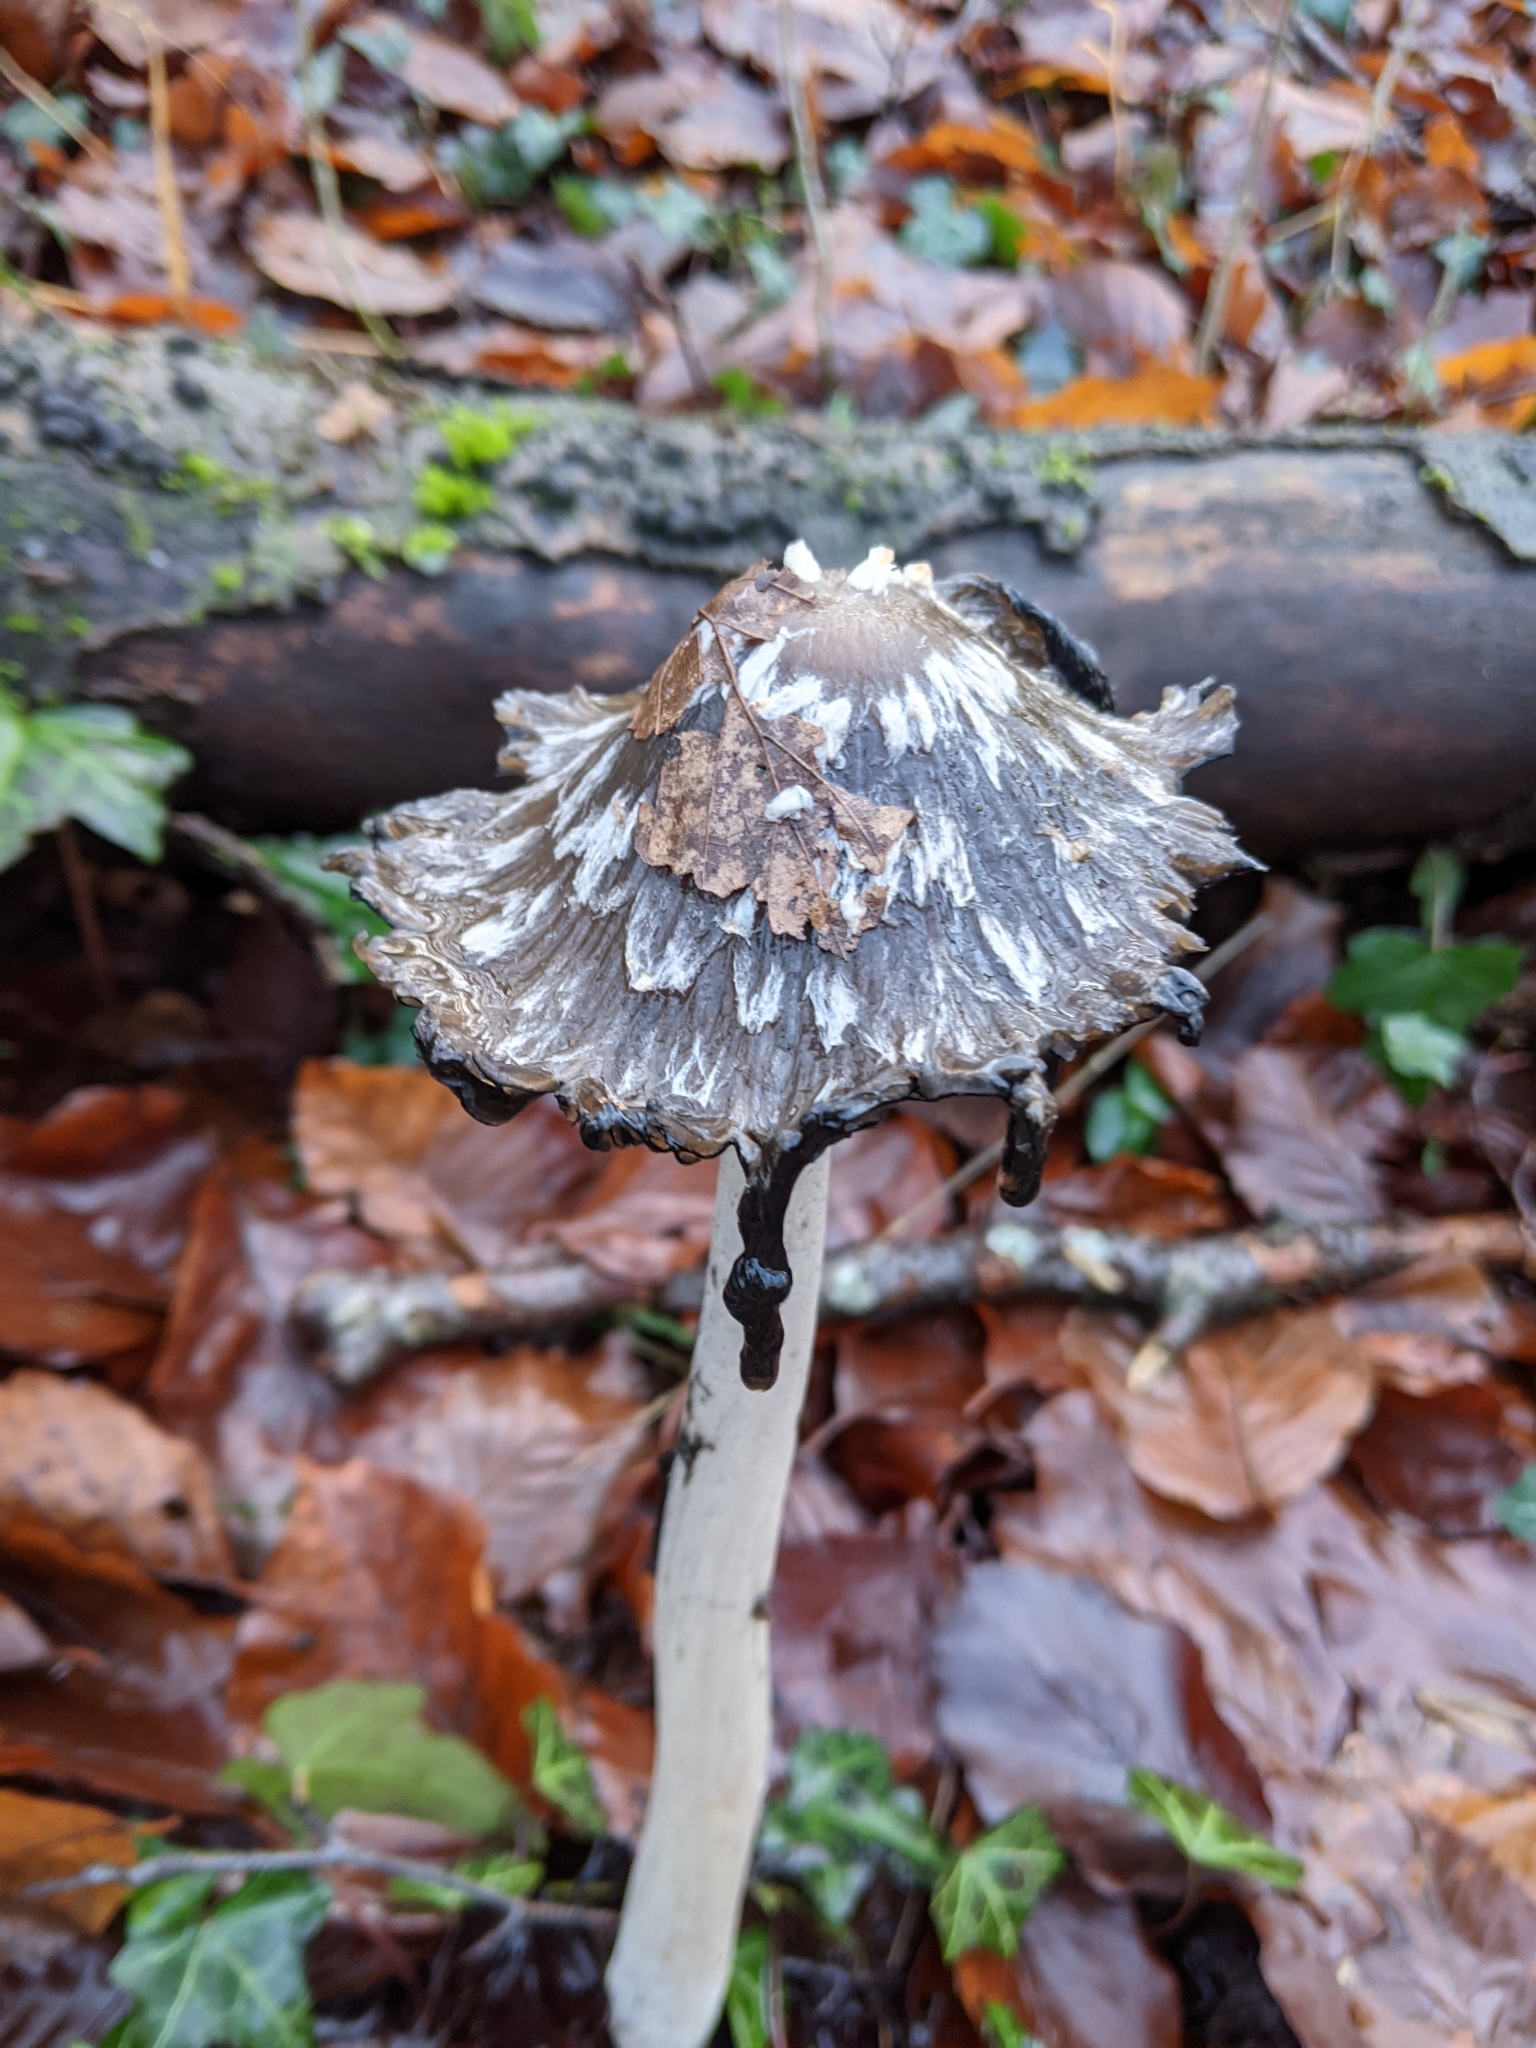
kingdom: Fungi
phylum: Basidiomycota
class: Agaricomycetes
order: Agaricales
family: Psathyrellaceae
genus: Coprinopsis
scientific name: Coprinopsis picacea
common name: Magpie inkcap
